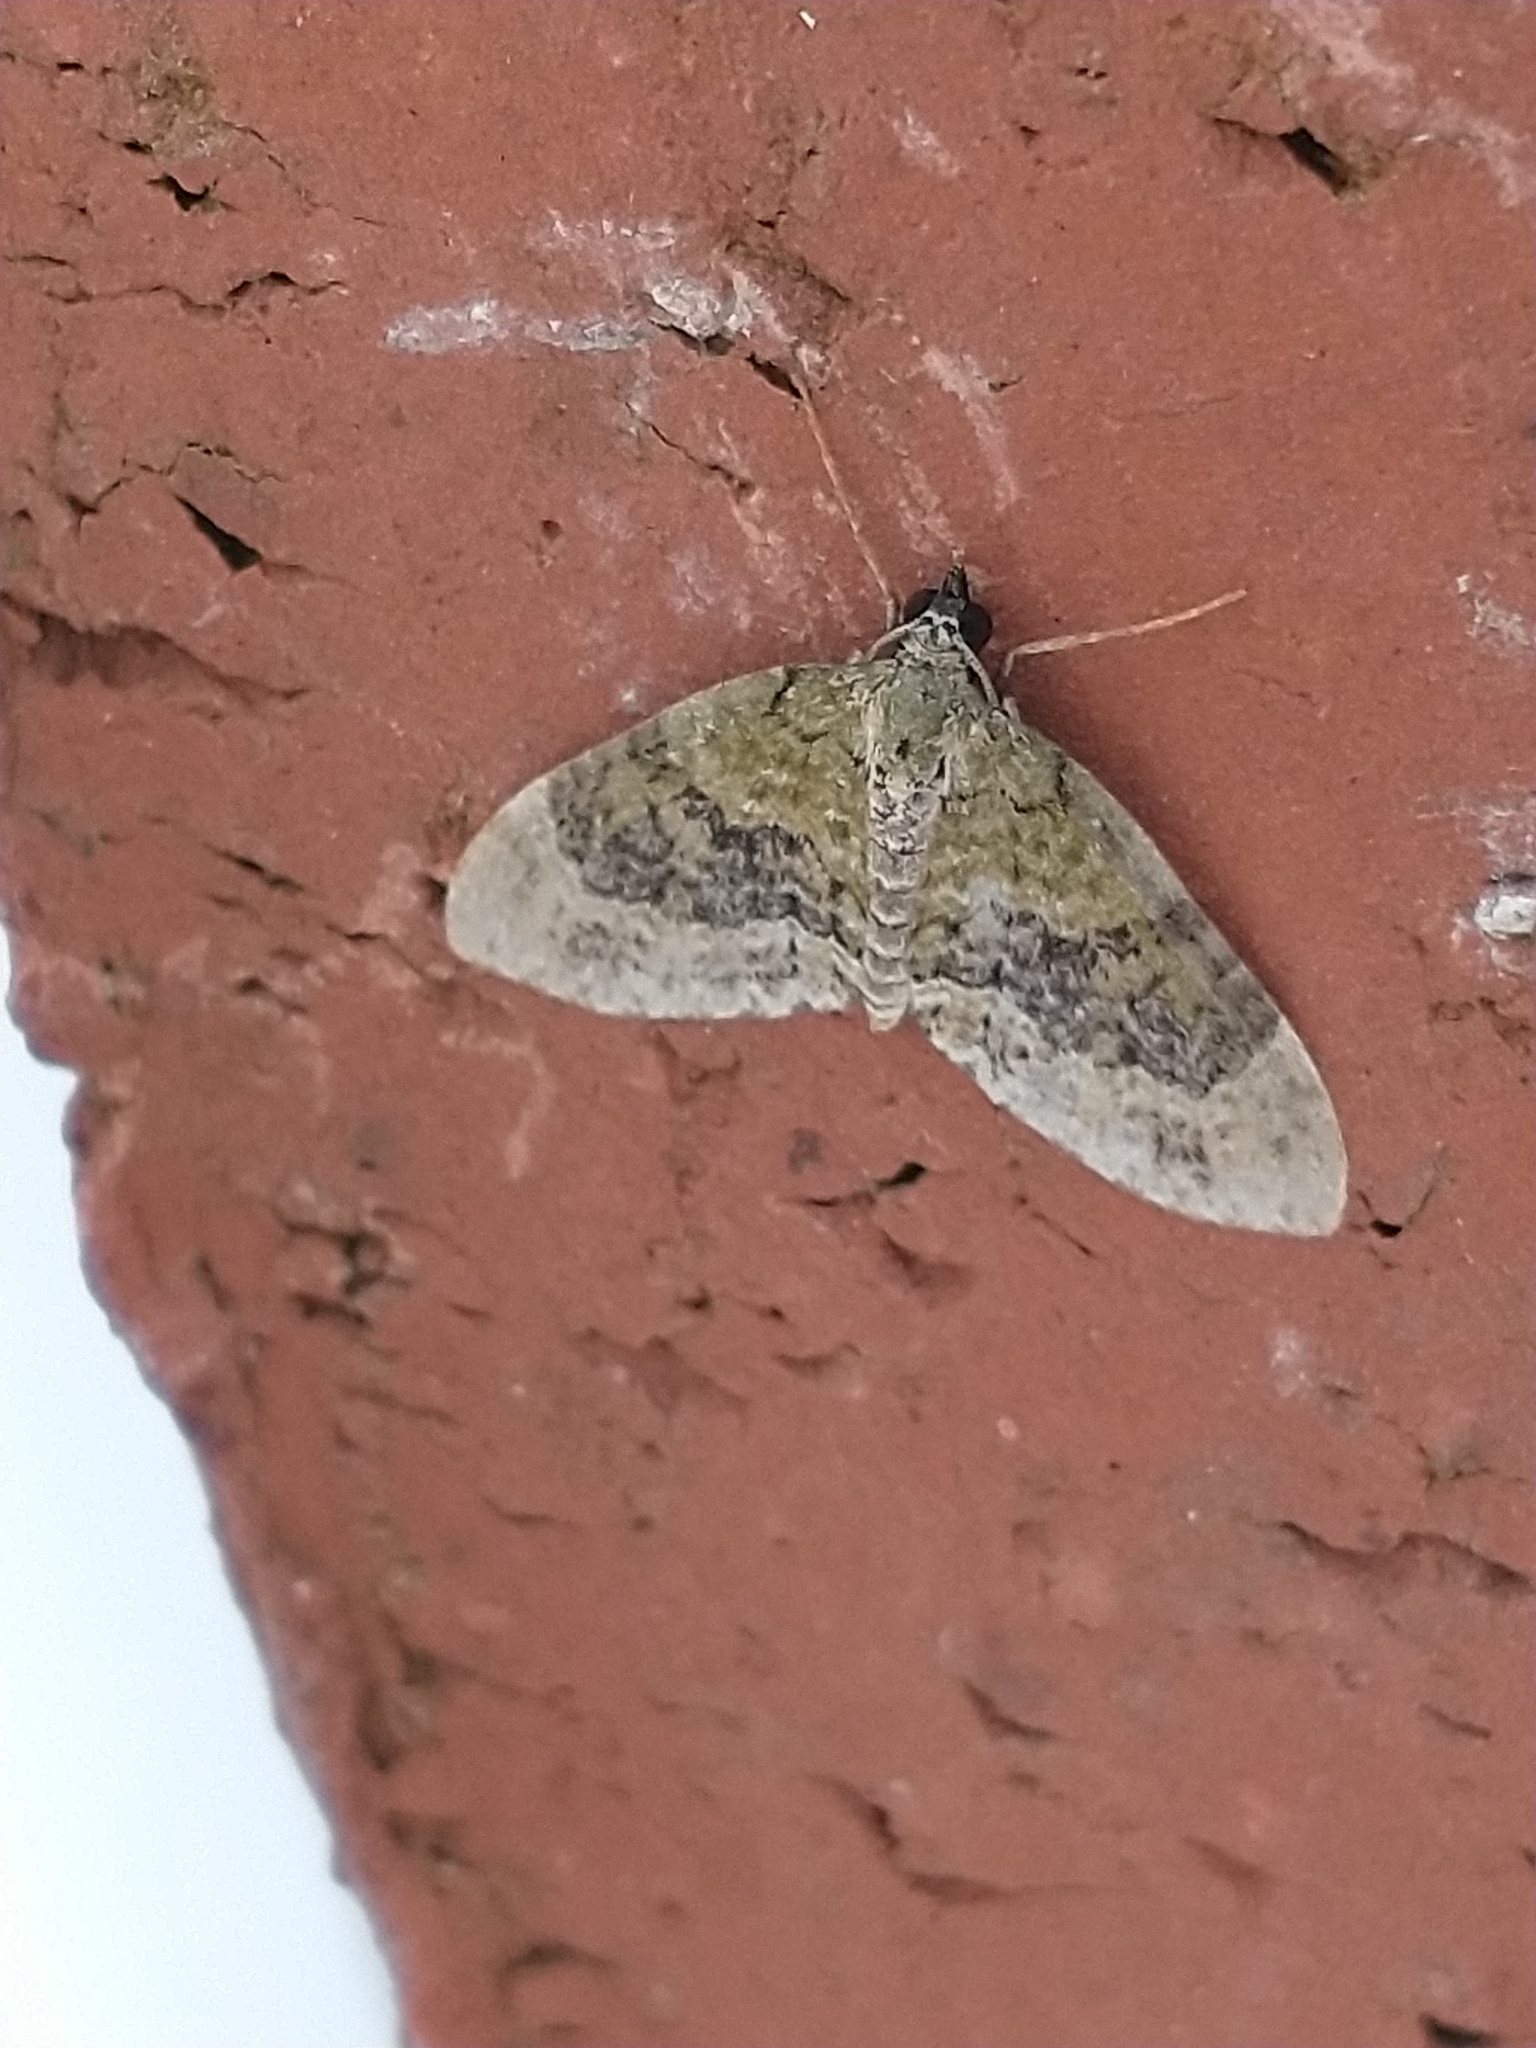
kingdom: Animalia
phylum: Arthropoda
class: Insecta
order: Lepidoptera
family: Geometridae
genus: Acasis
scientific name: Acasis viretata
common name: Yellow-barred brindle
